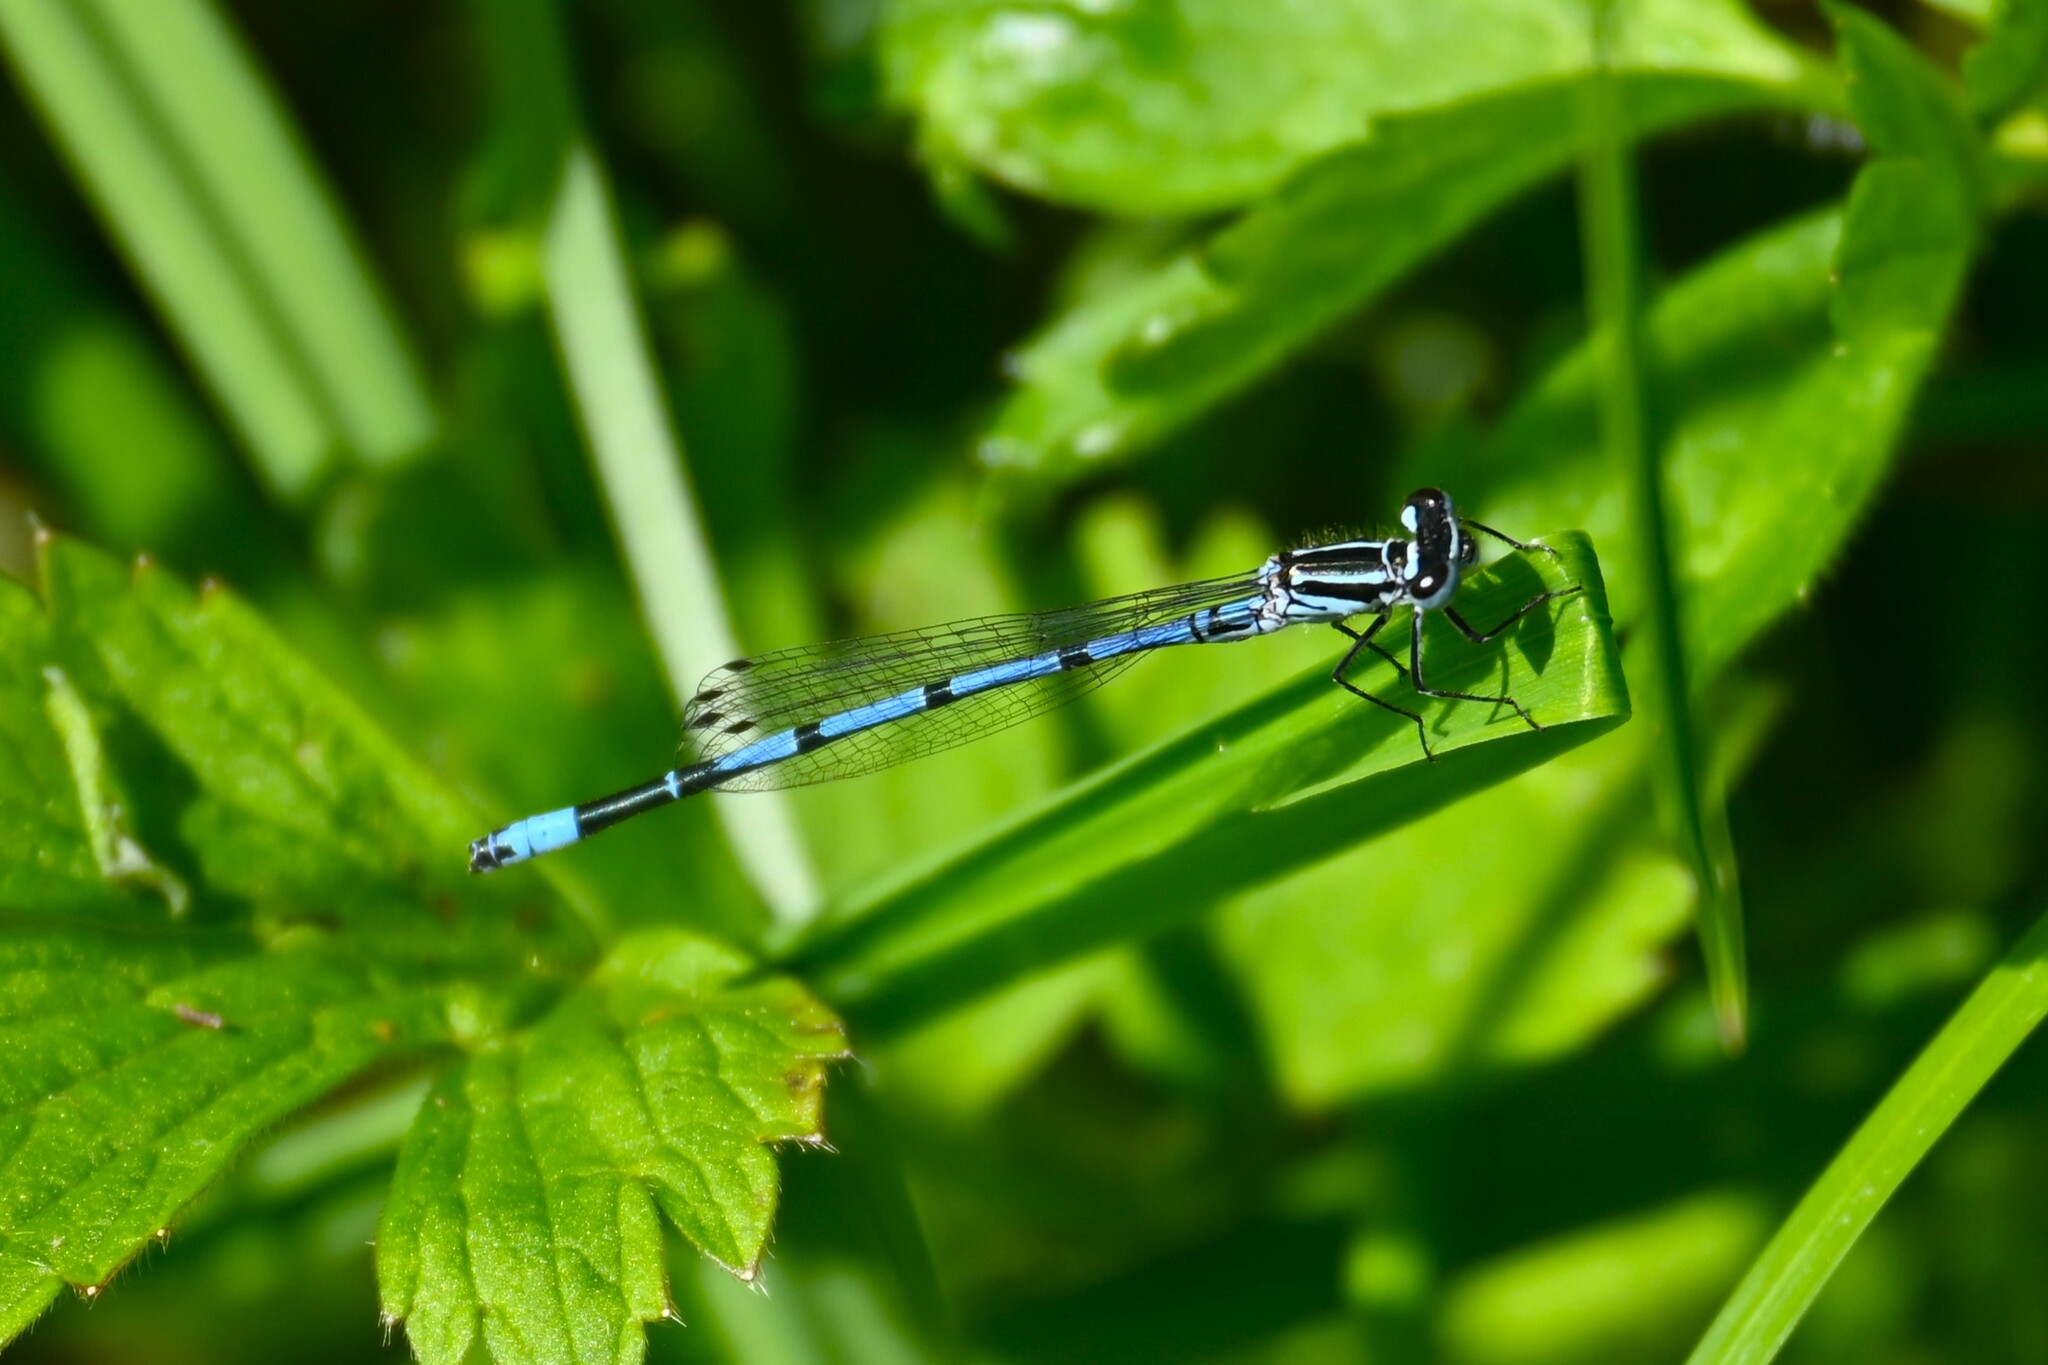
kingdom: Animalia
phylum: Arthropoda
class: Insecta
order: Odonata
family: Coenagrionidae
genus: Coenagrion
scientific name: Coenagrion puella
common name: Azure damselfly
